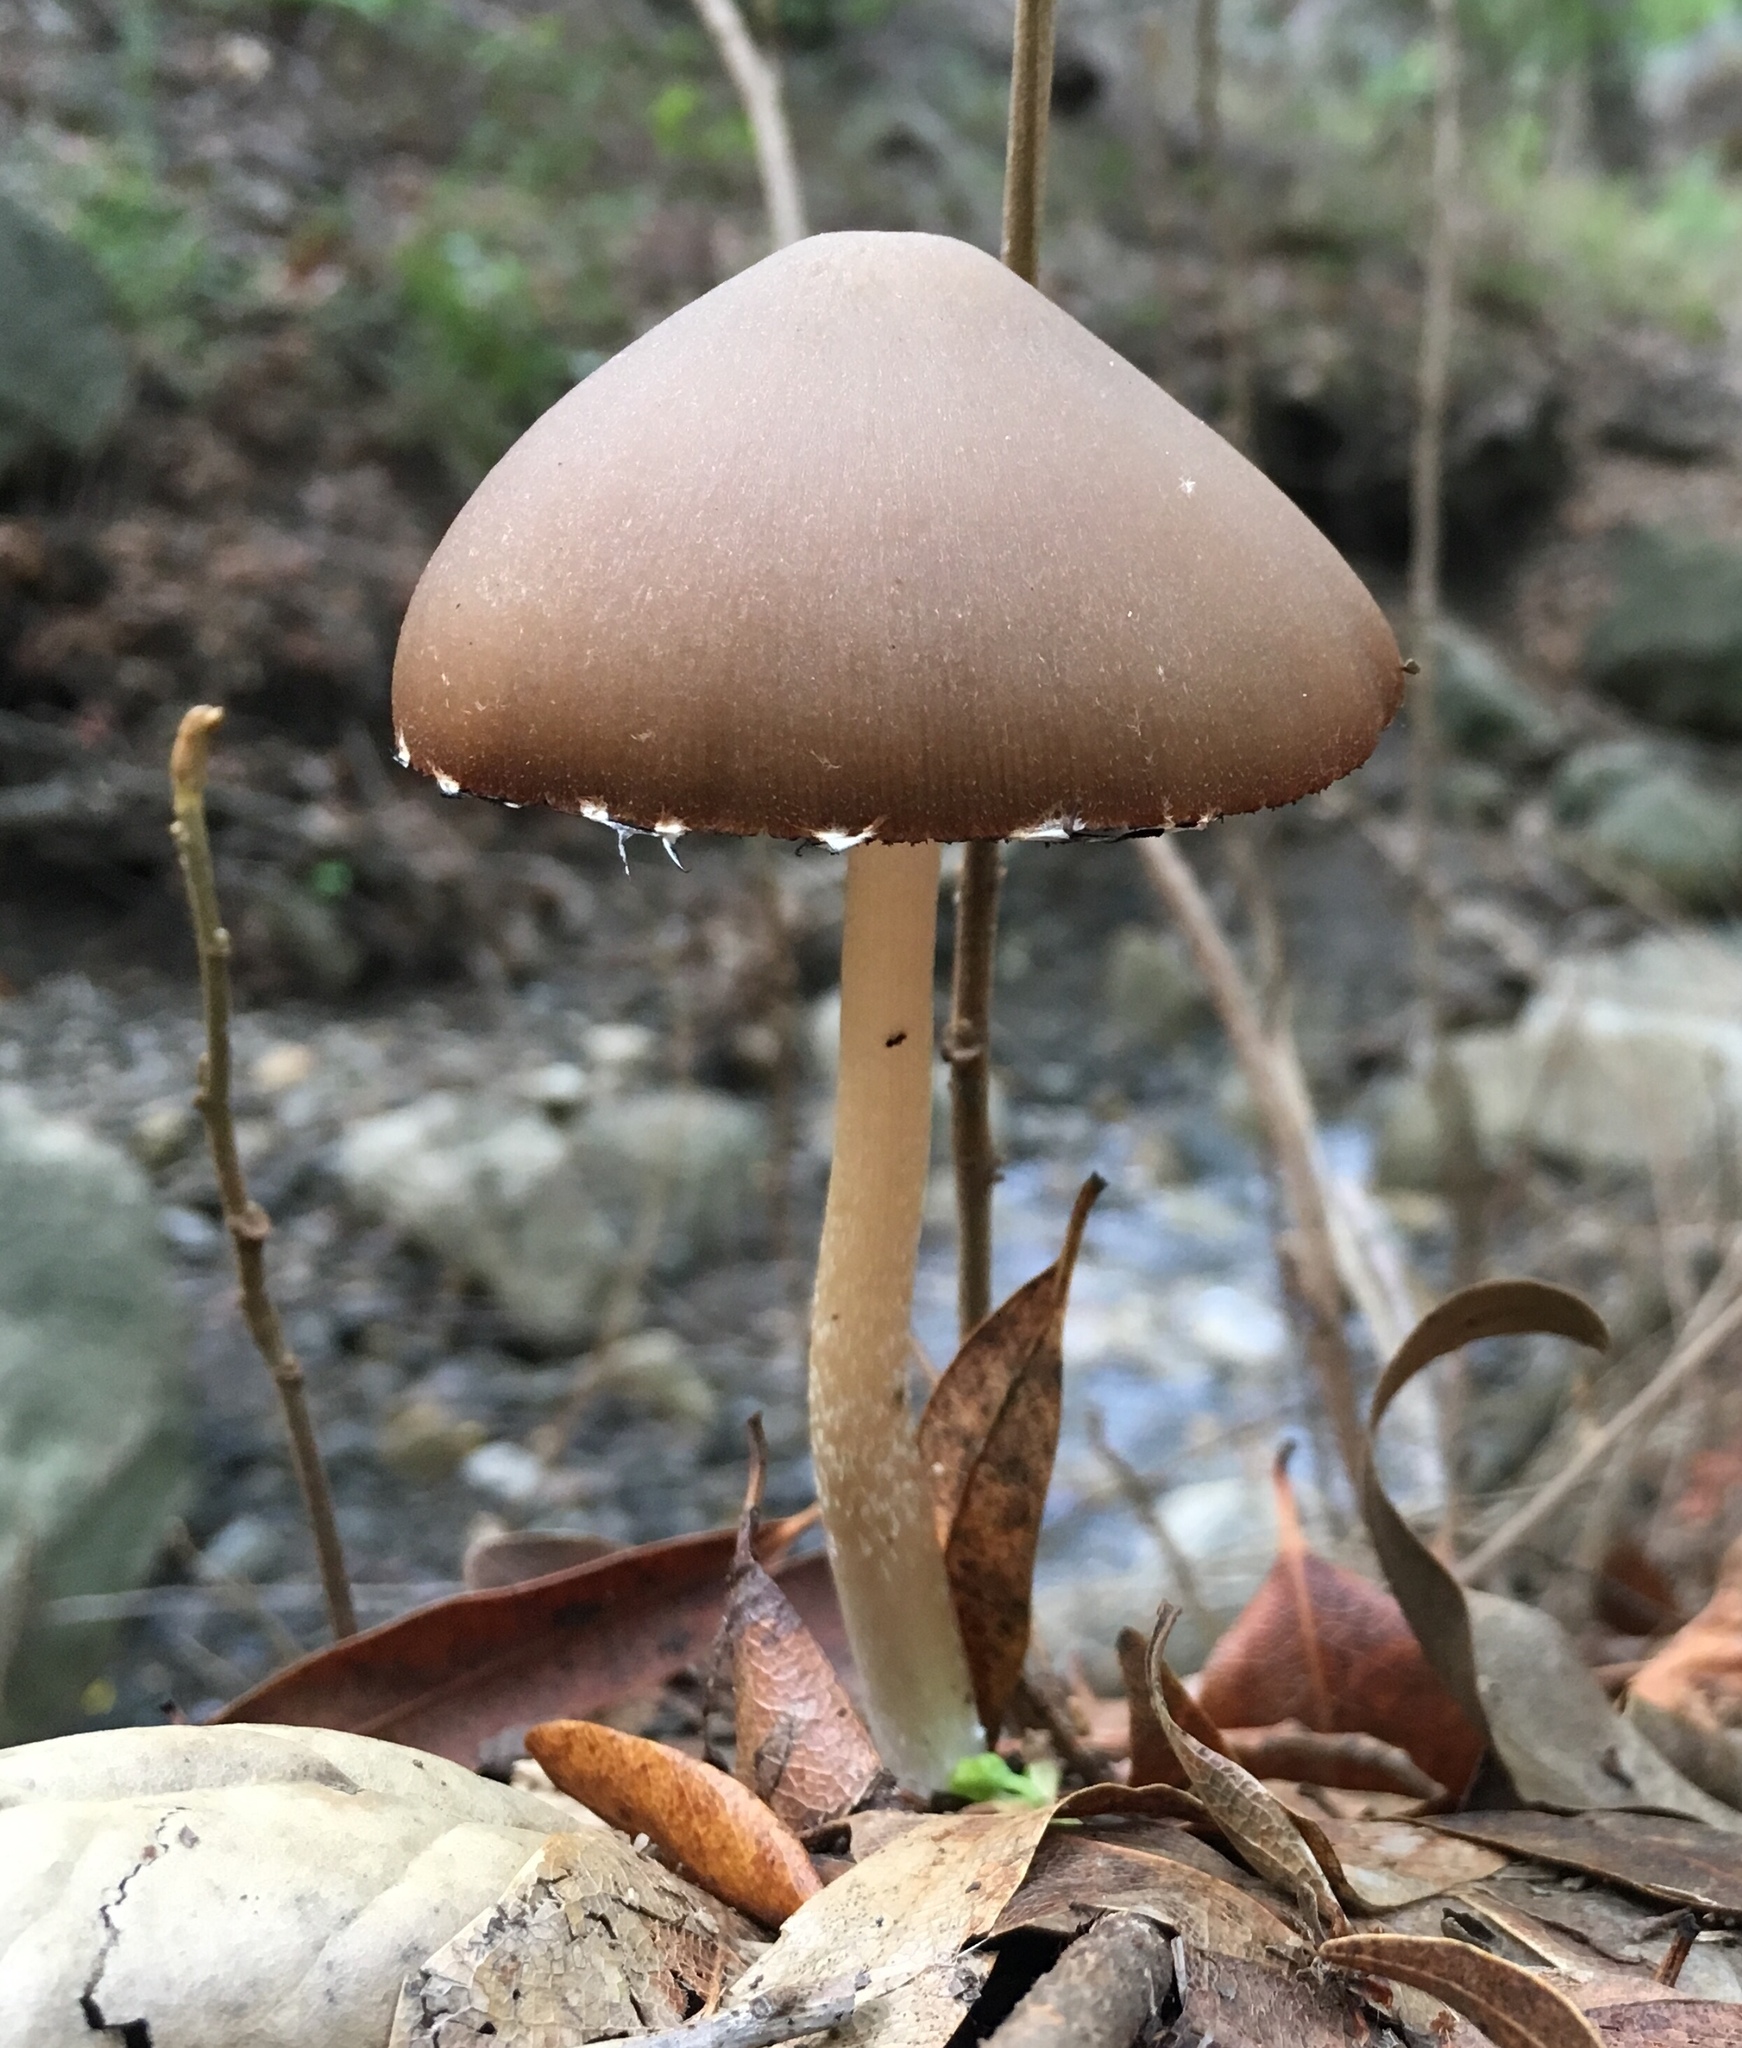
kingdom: Fungi
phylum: Basidiomycota
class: Agaricomycetes
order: Agaricales
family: Psathyrellaceae
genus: Psathyrella
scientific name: Psathyrella longipes
